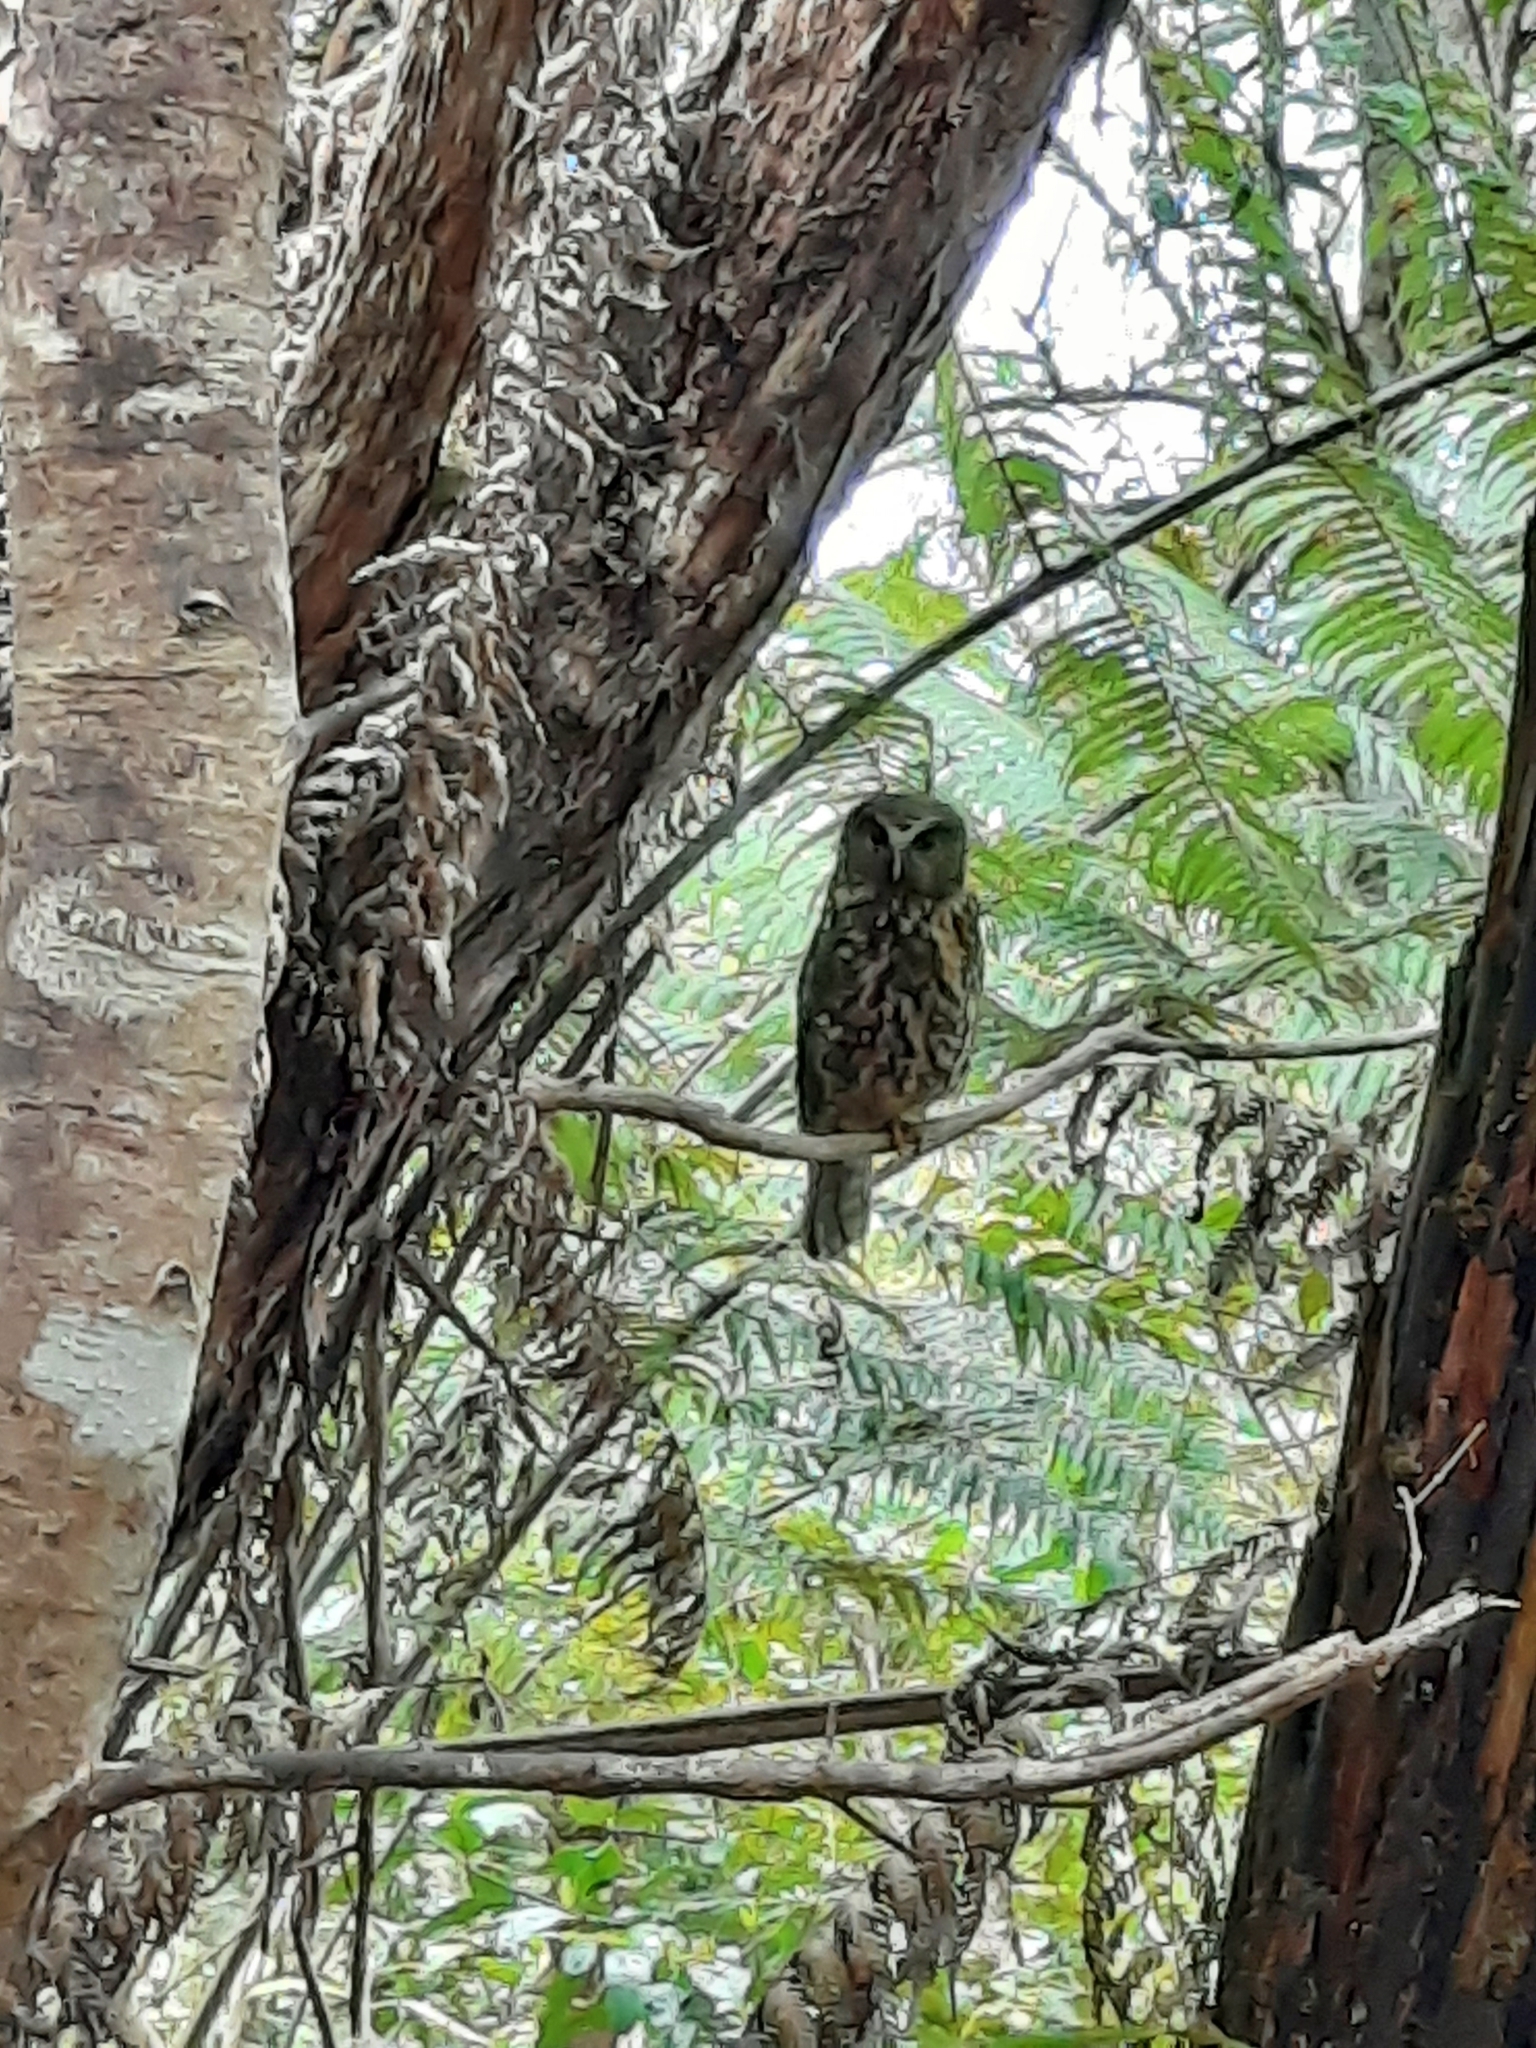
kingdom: Animalia
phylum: Chordata
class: Aves
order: Strigiformes
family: Strigidae
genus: Ninox
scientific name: Ninox novaeseelandiae
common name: Morepork
